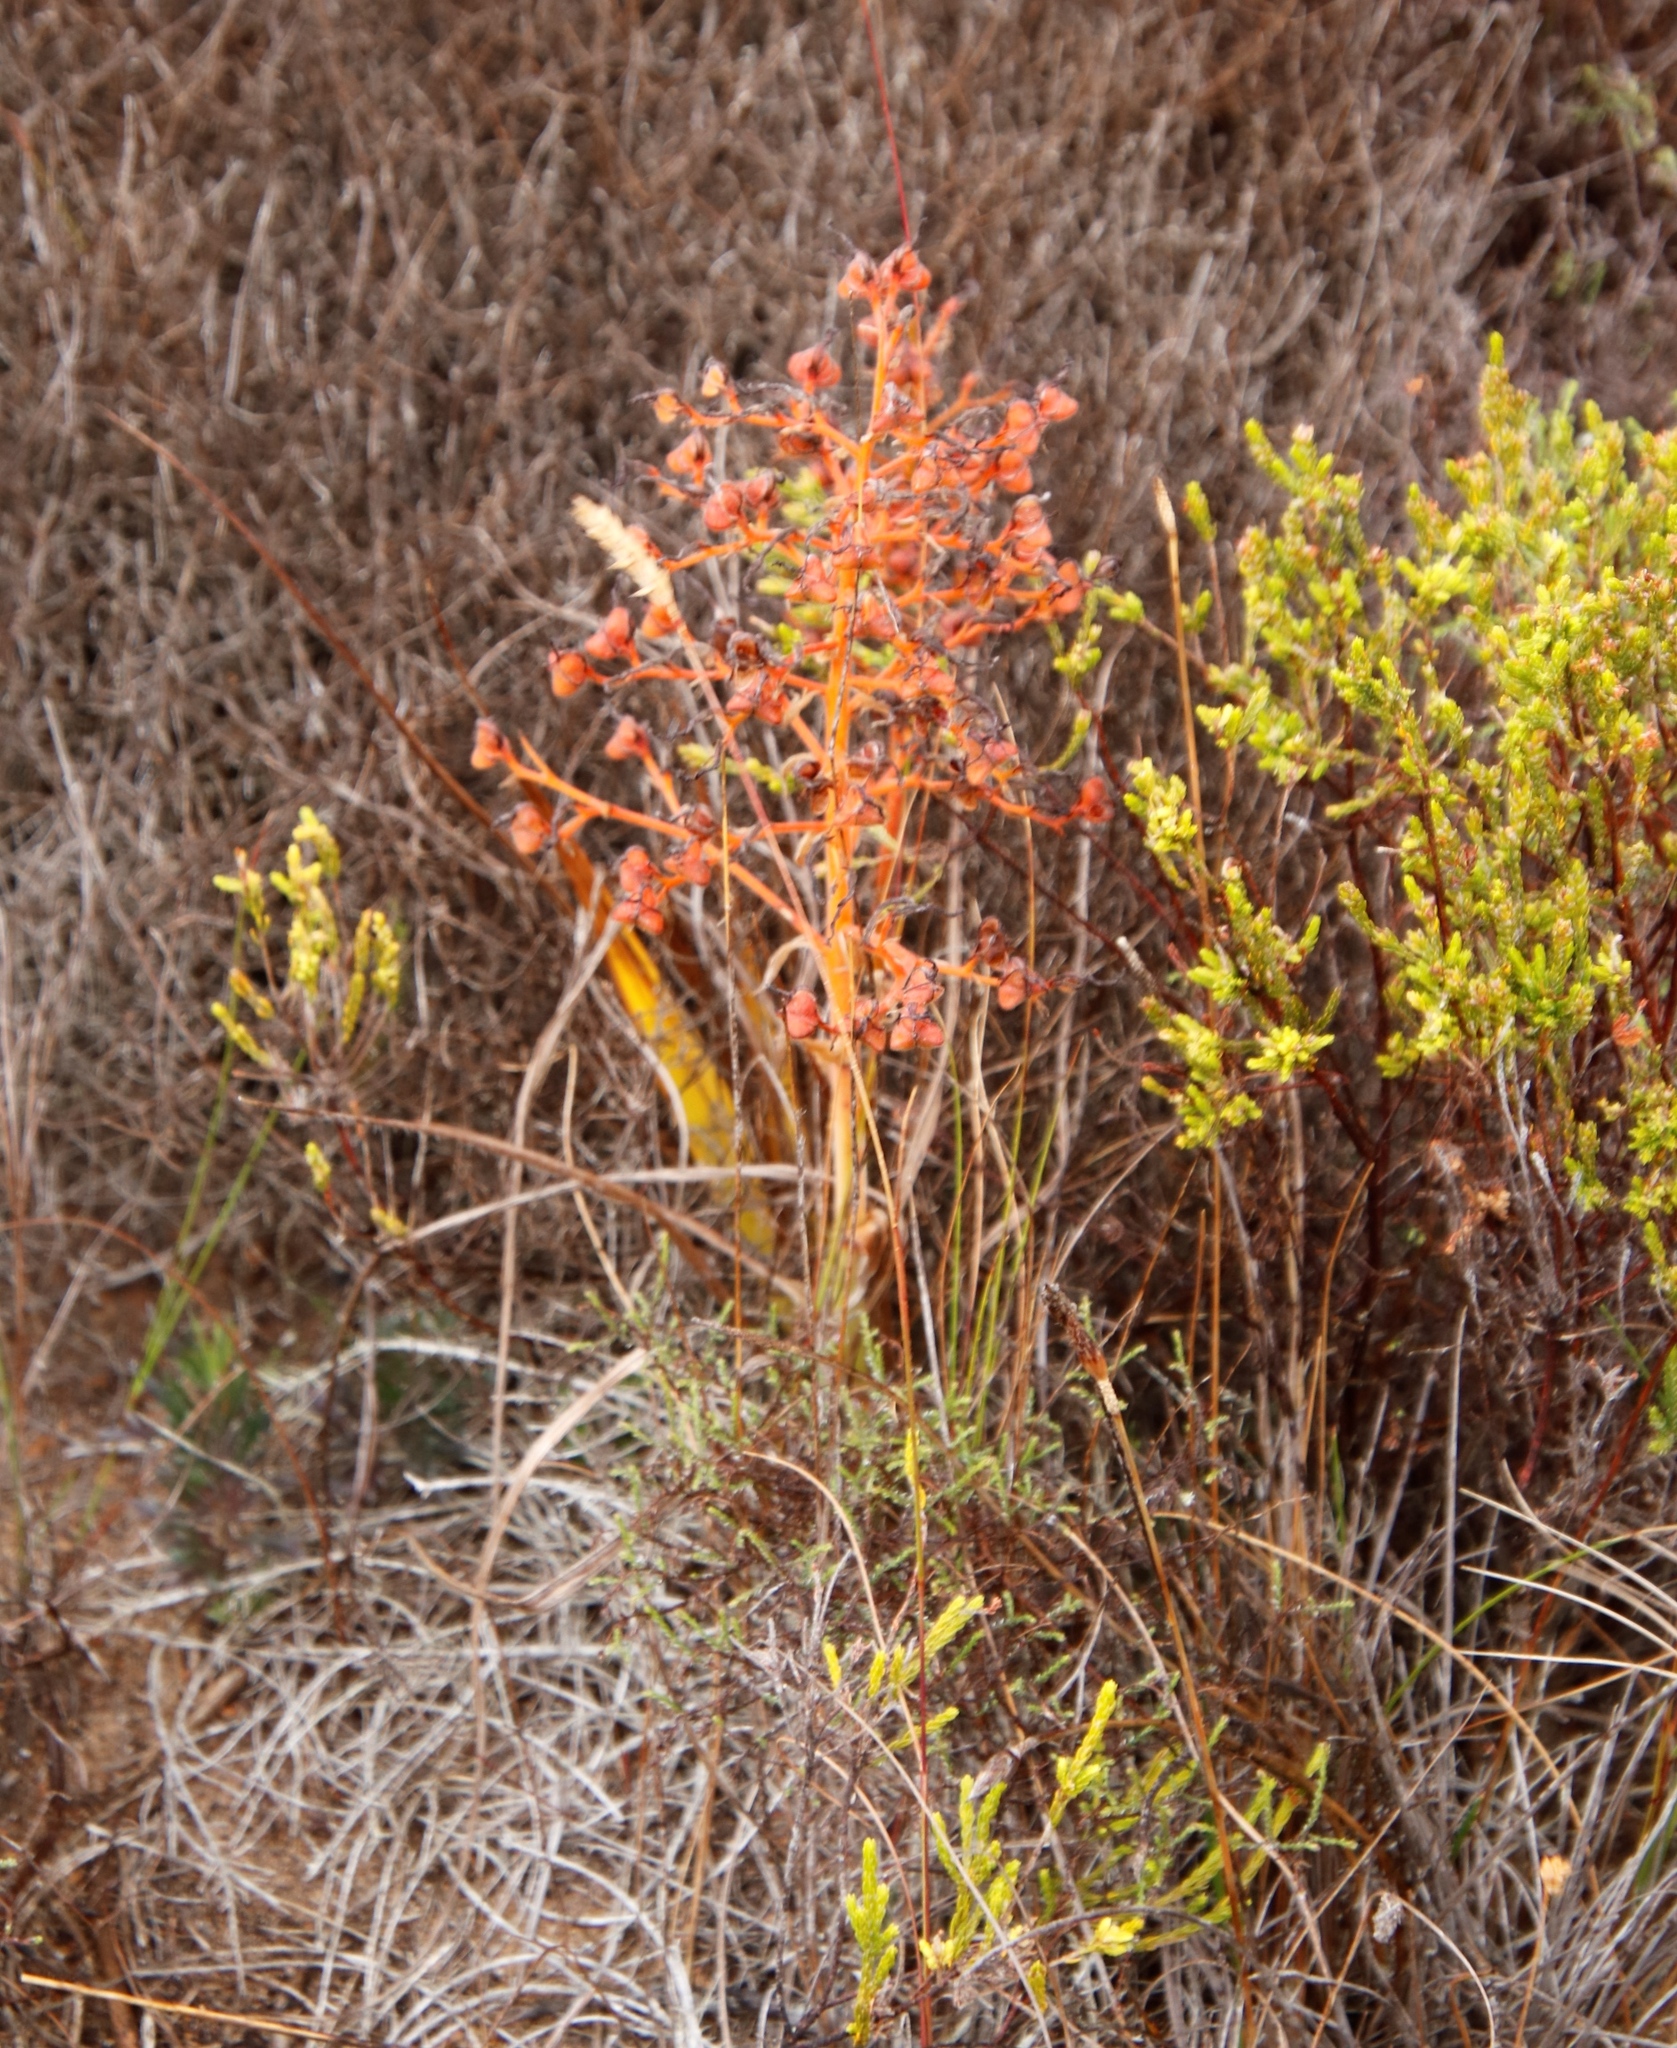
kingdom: Plantae
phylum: Tracheophyta
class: Liliopsida
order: Commelinales
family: Haemodoraceae
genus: Wachendorfia
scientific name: Wachendorfia paniculata
